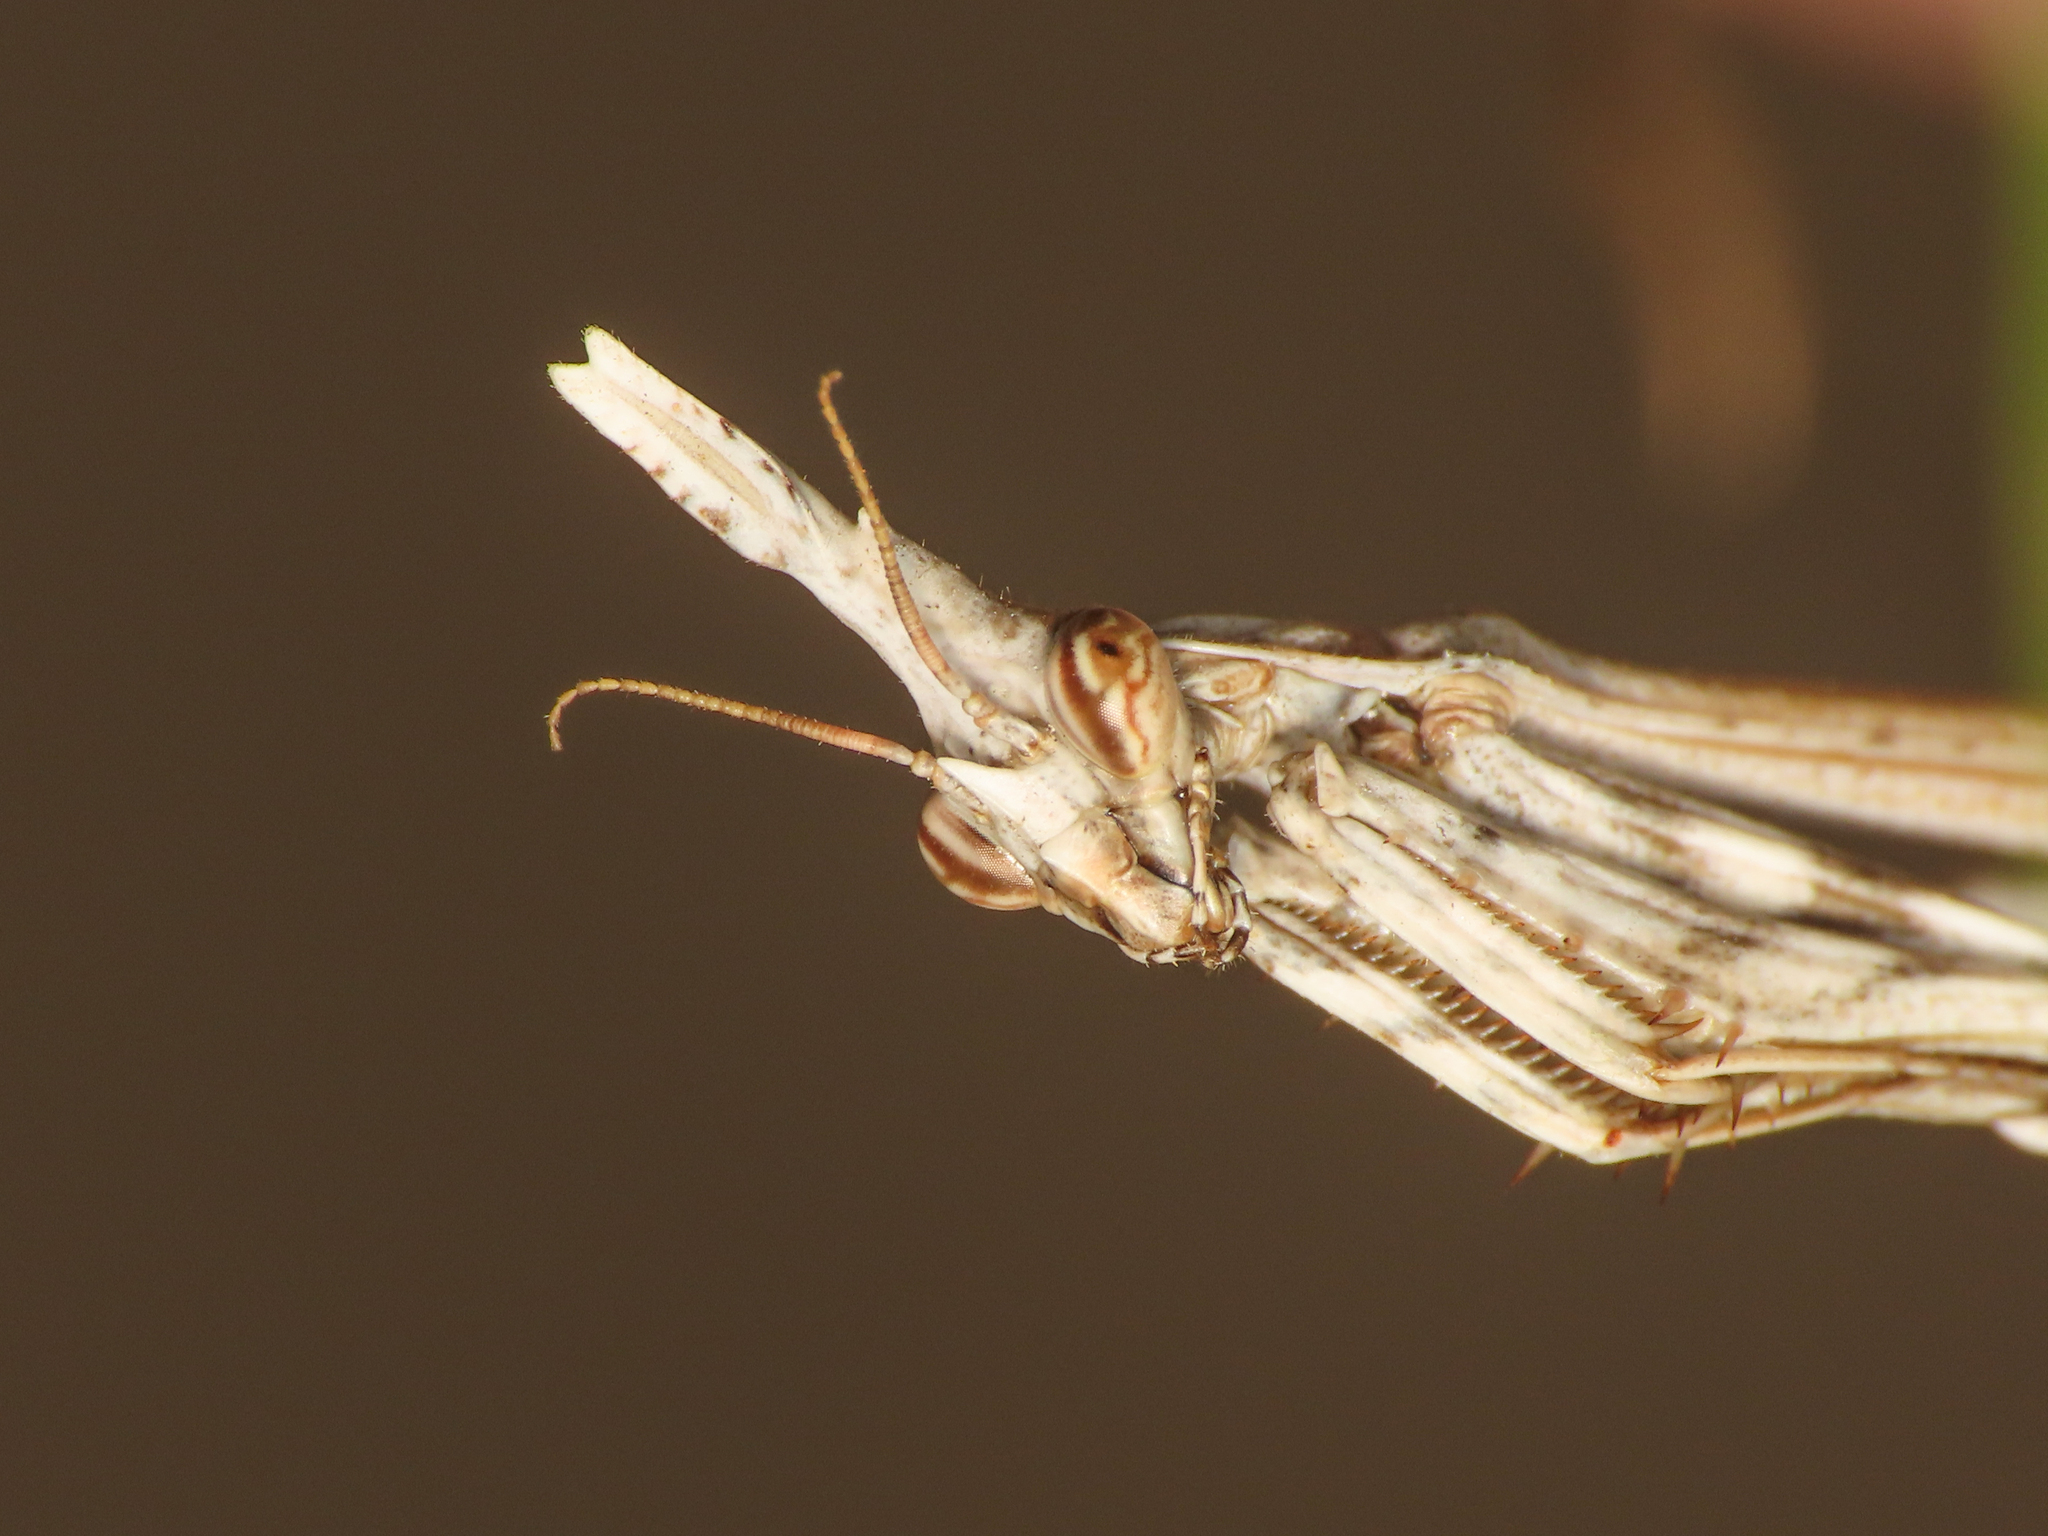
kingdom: Animalia
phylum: Arthropoda
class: Insecta
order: Mantodea
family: Empusidae
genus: Empusa
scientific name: Empusa pennata
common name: Conehead mantis
